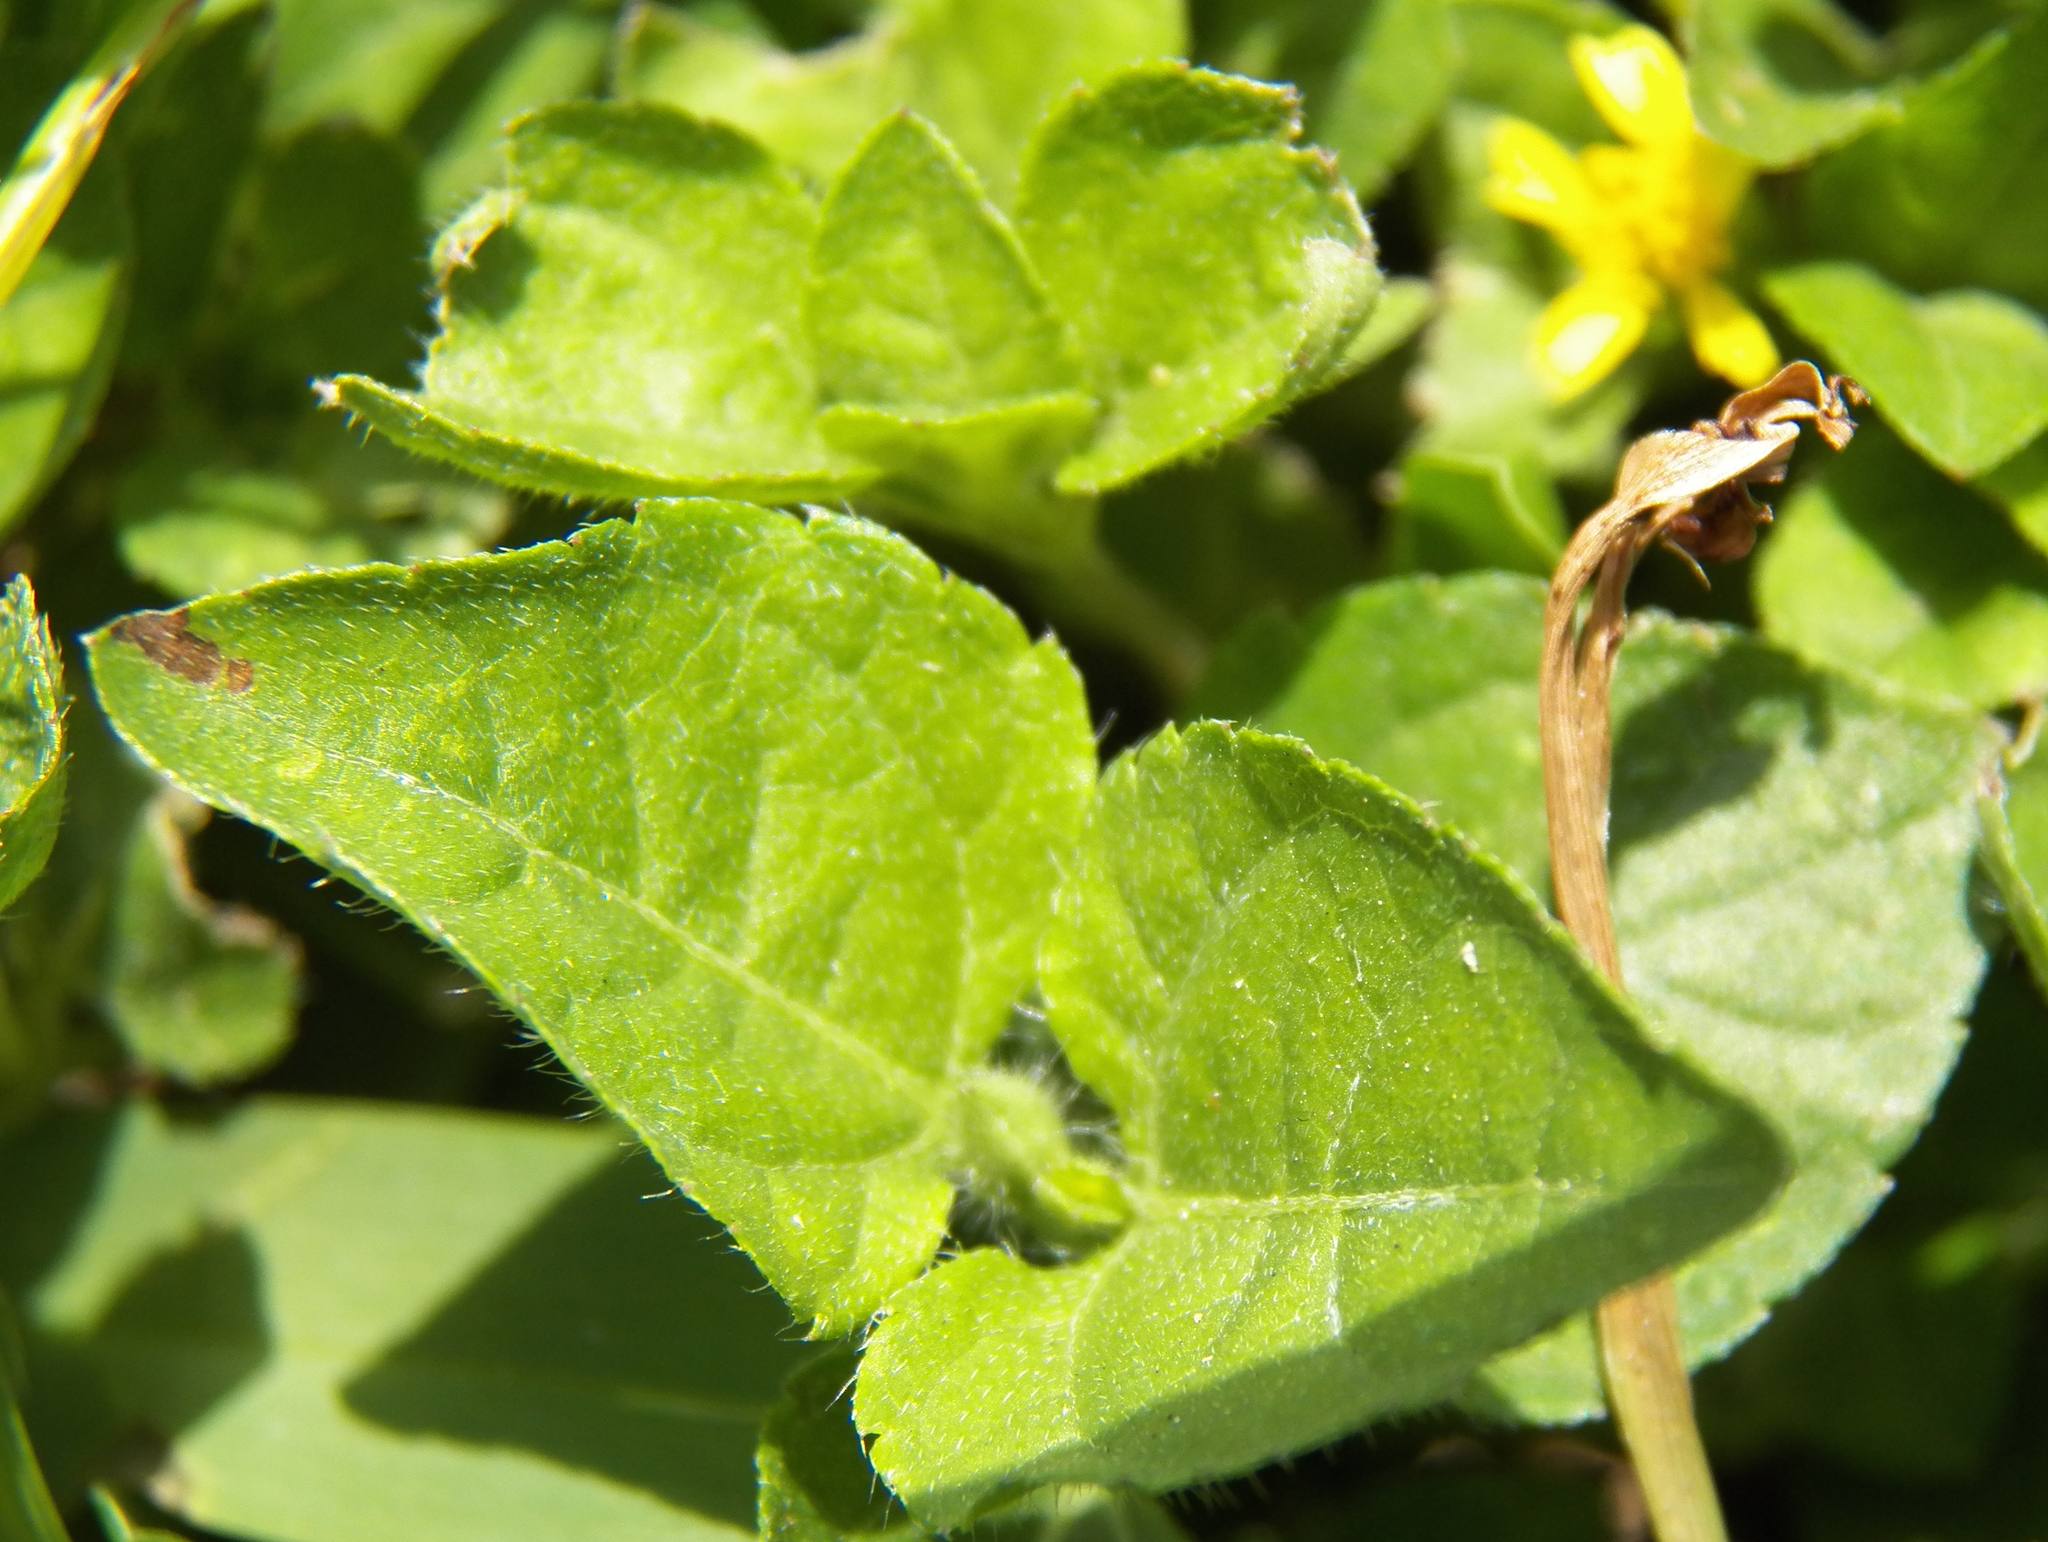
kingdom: Plantae
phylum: Tracheophyta
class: Magnoliopsida
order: Asterales
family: Asteraceae
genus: Calyptocarpus
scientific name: Calyptocarpus vialis
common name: Straggler daisy
